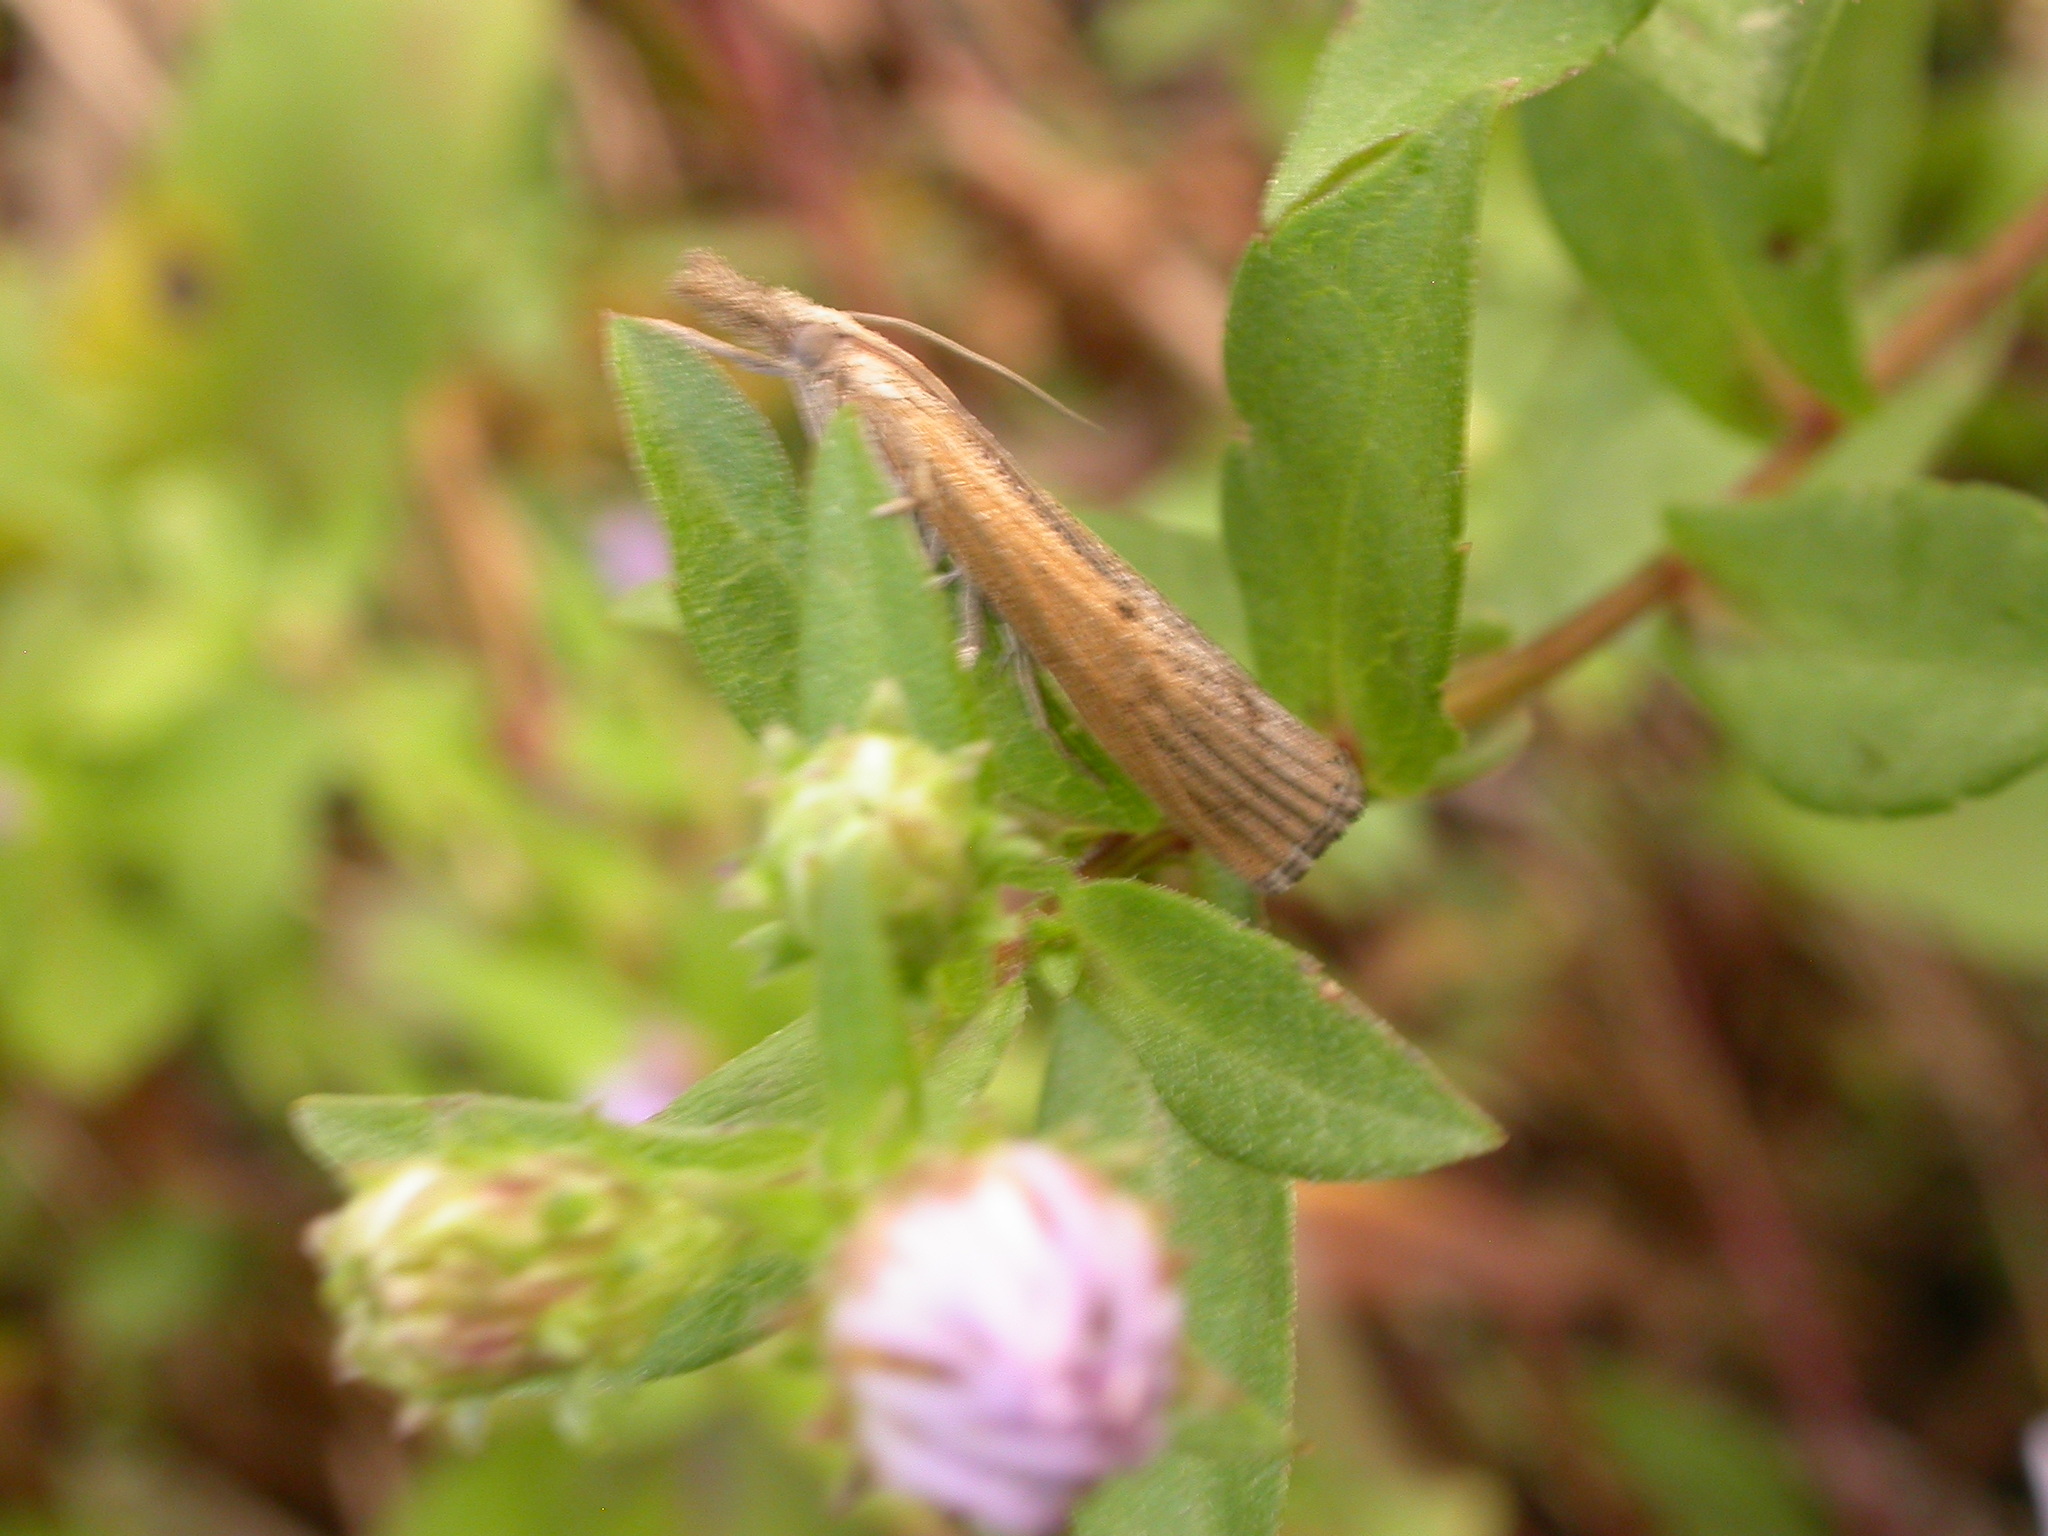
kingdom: Animalia
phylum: Arthropoda
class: Insecta
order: Lepidoptera
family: Crambidae
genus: Pediasia
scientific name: Pediasia trisecta
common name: Sod webworm moth
